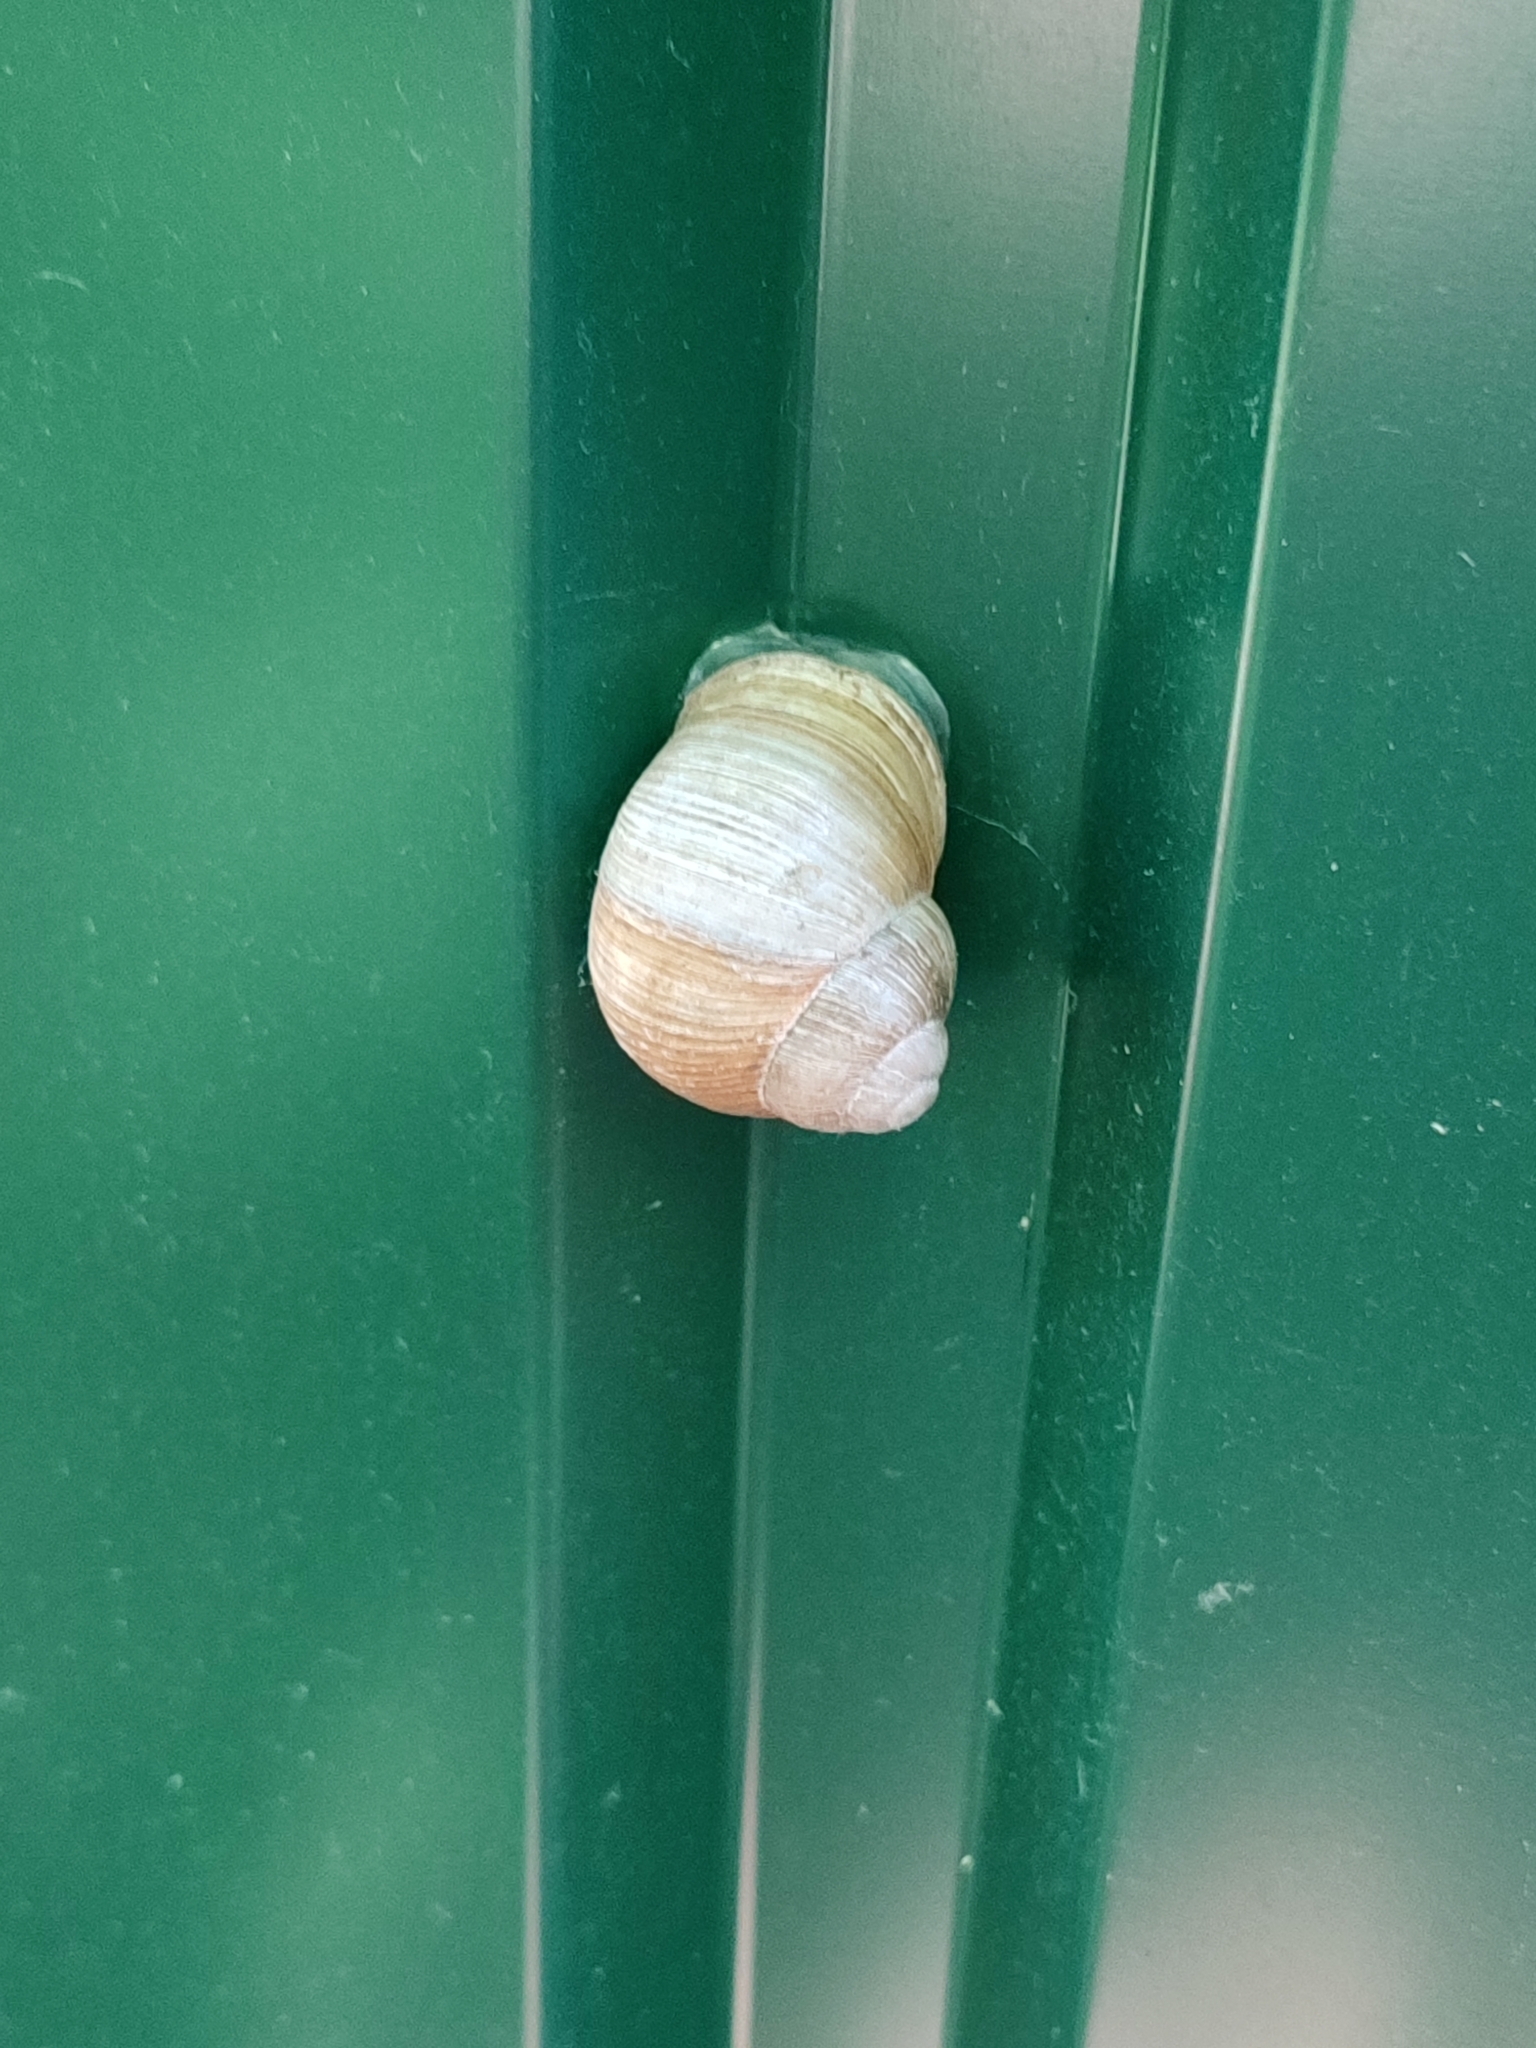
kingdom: Animalia
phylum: Mollusca
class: Gastropoda
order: Stylommatophora
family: Helicidae
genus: Helix
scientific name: Helix pomatia
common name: Roman snail
